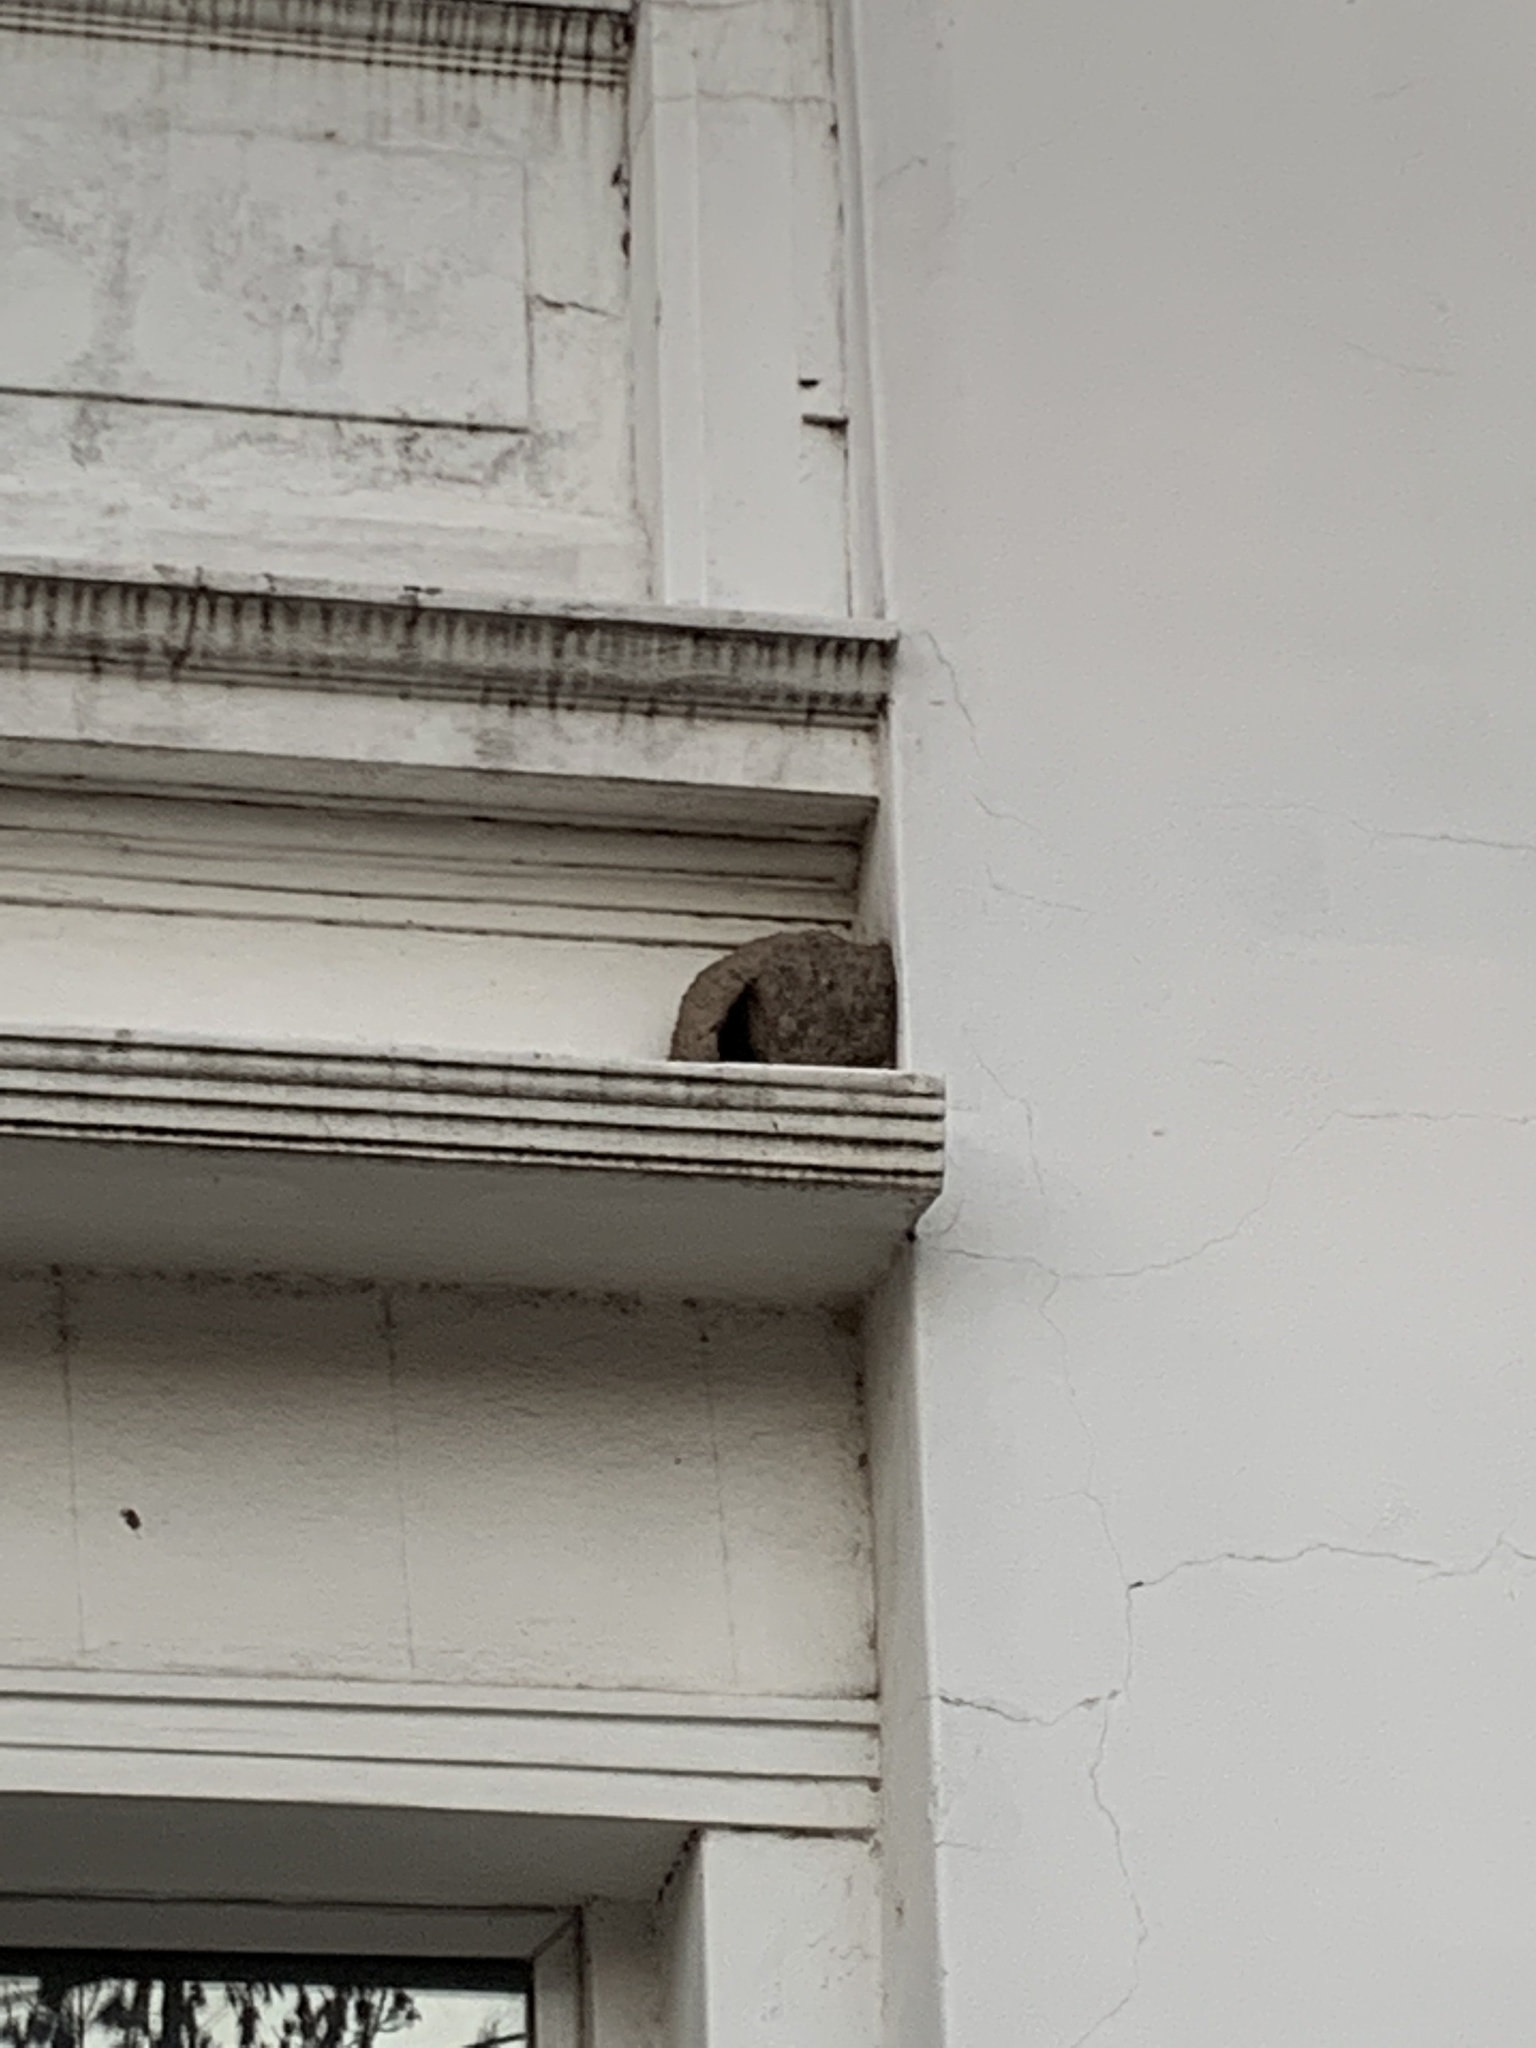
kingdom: Animalia
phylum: Chordata
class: Aves
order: Passeriformes
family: Furnariidae
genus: Furnarius
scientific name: Furnarius rufus
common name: Rufous hornero
